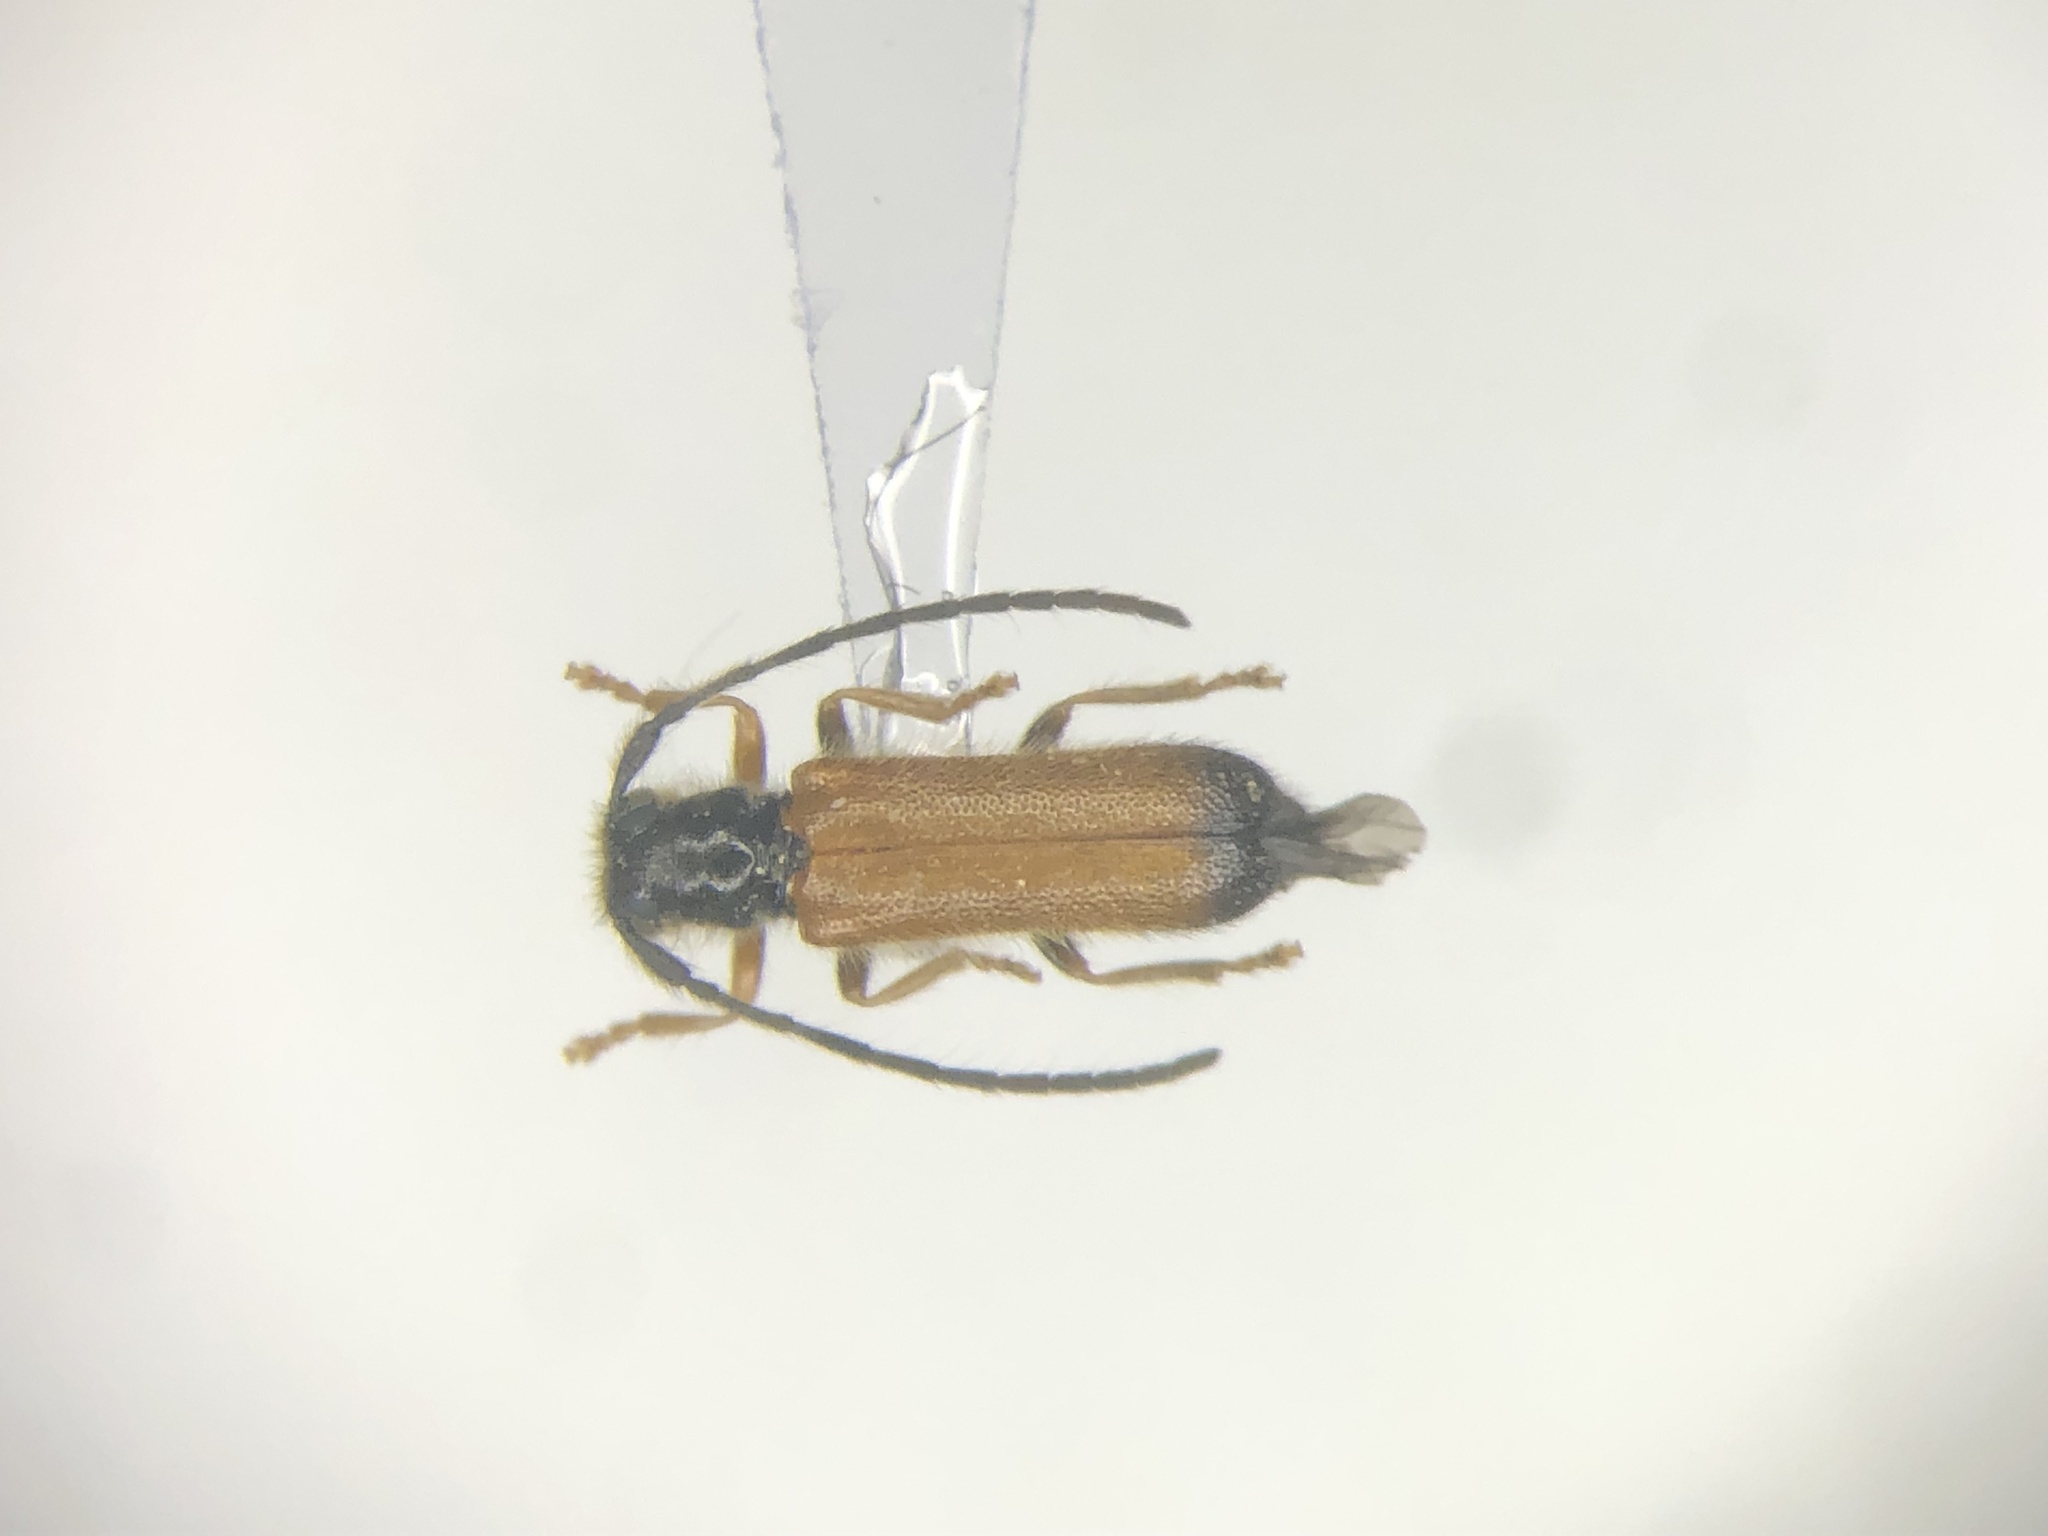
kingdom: Animalia
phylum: Arthropoda
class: Insecta
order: Coleoptera
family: Cerambycidae
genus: Tetrops
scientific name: Tetrops praeustus
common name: Plum beetle
